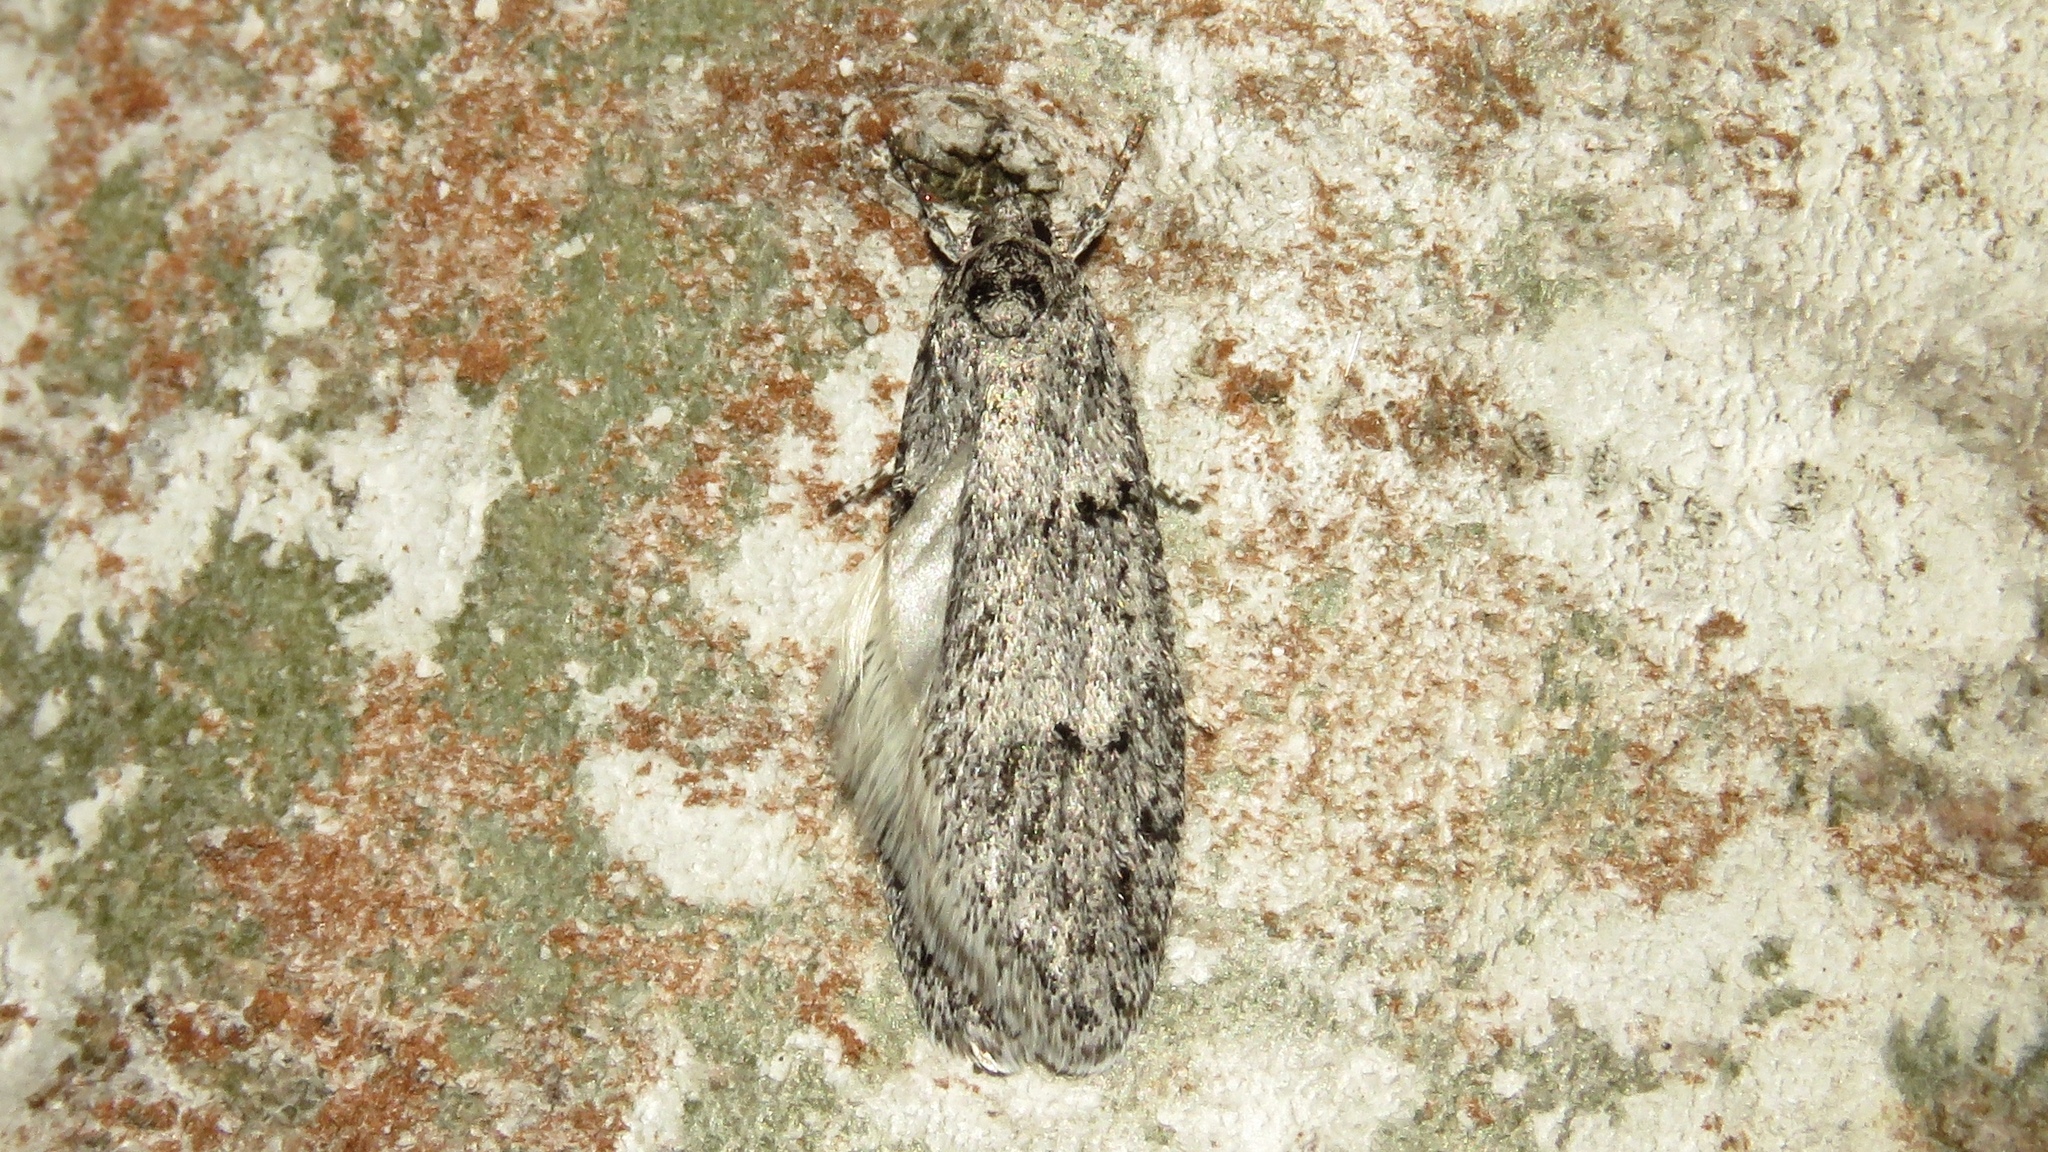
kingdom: Animalia
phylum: Arthropoda
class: Insecta
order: Lepidoptera
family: Depressariidae
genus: Semioscopis
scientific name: Semioscopis inornata
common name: Poplar micromoth
